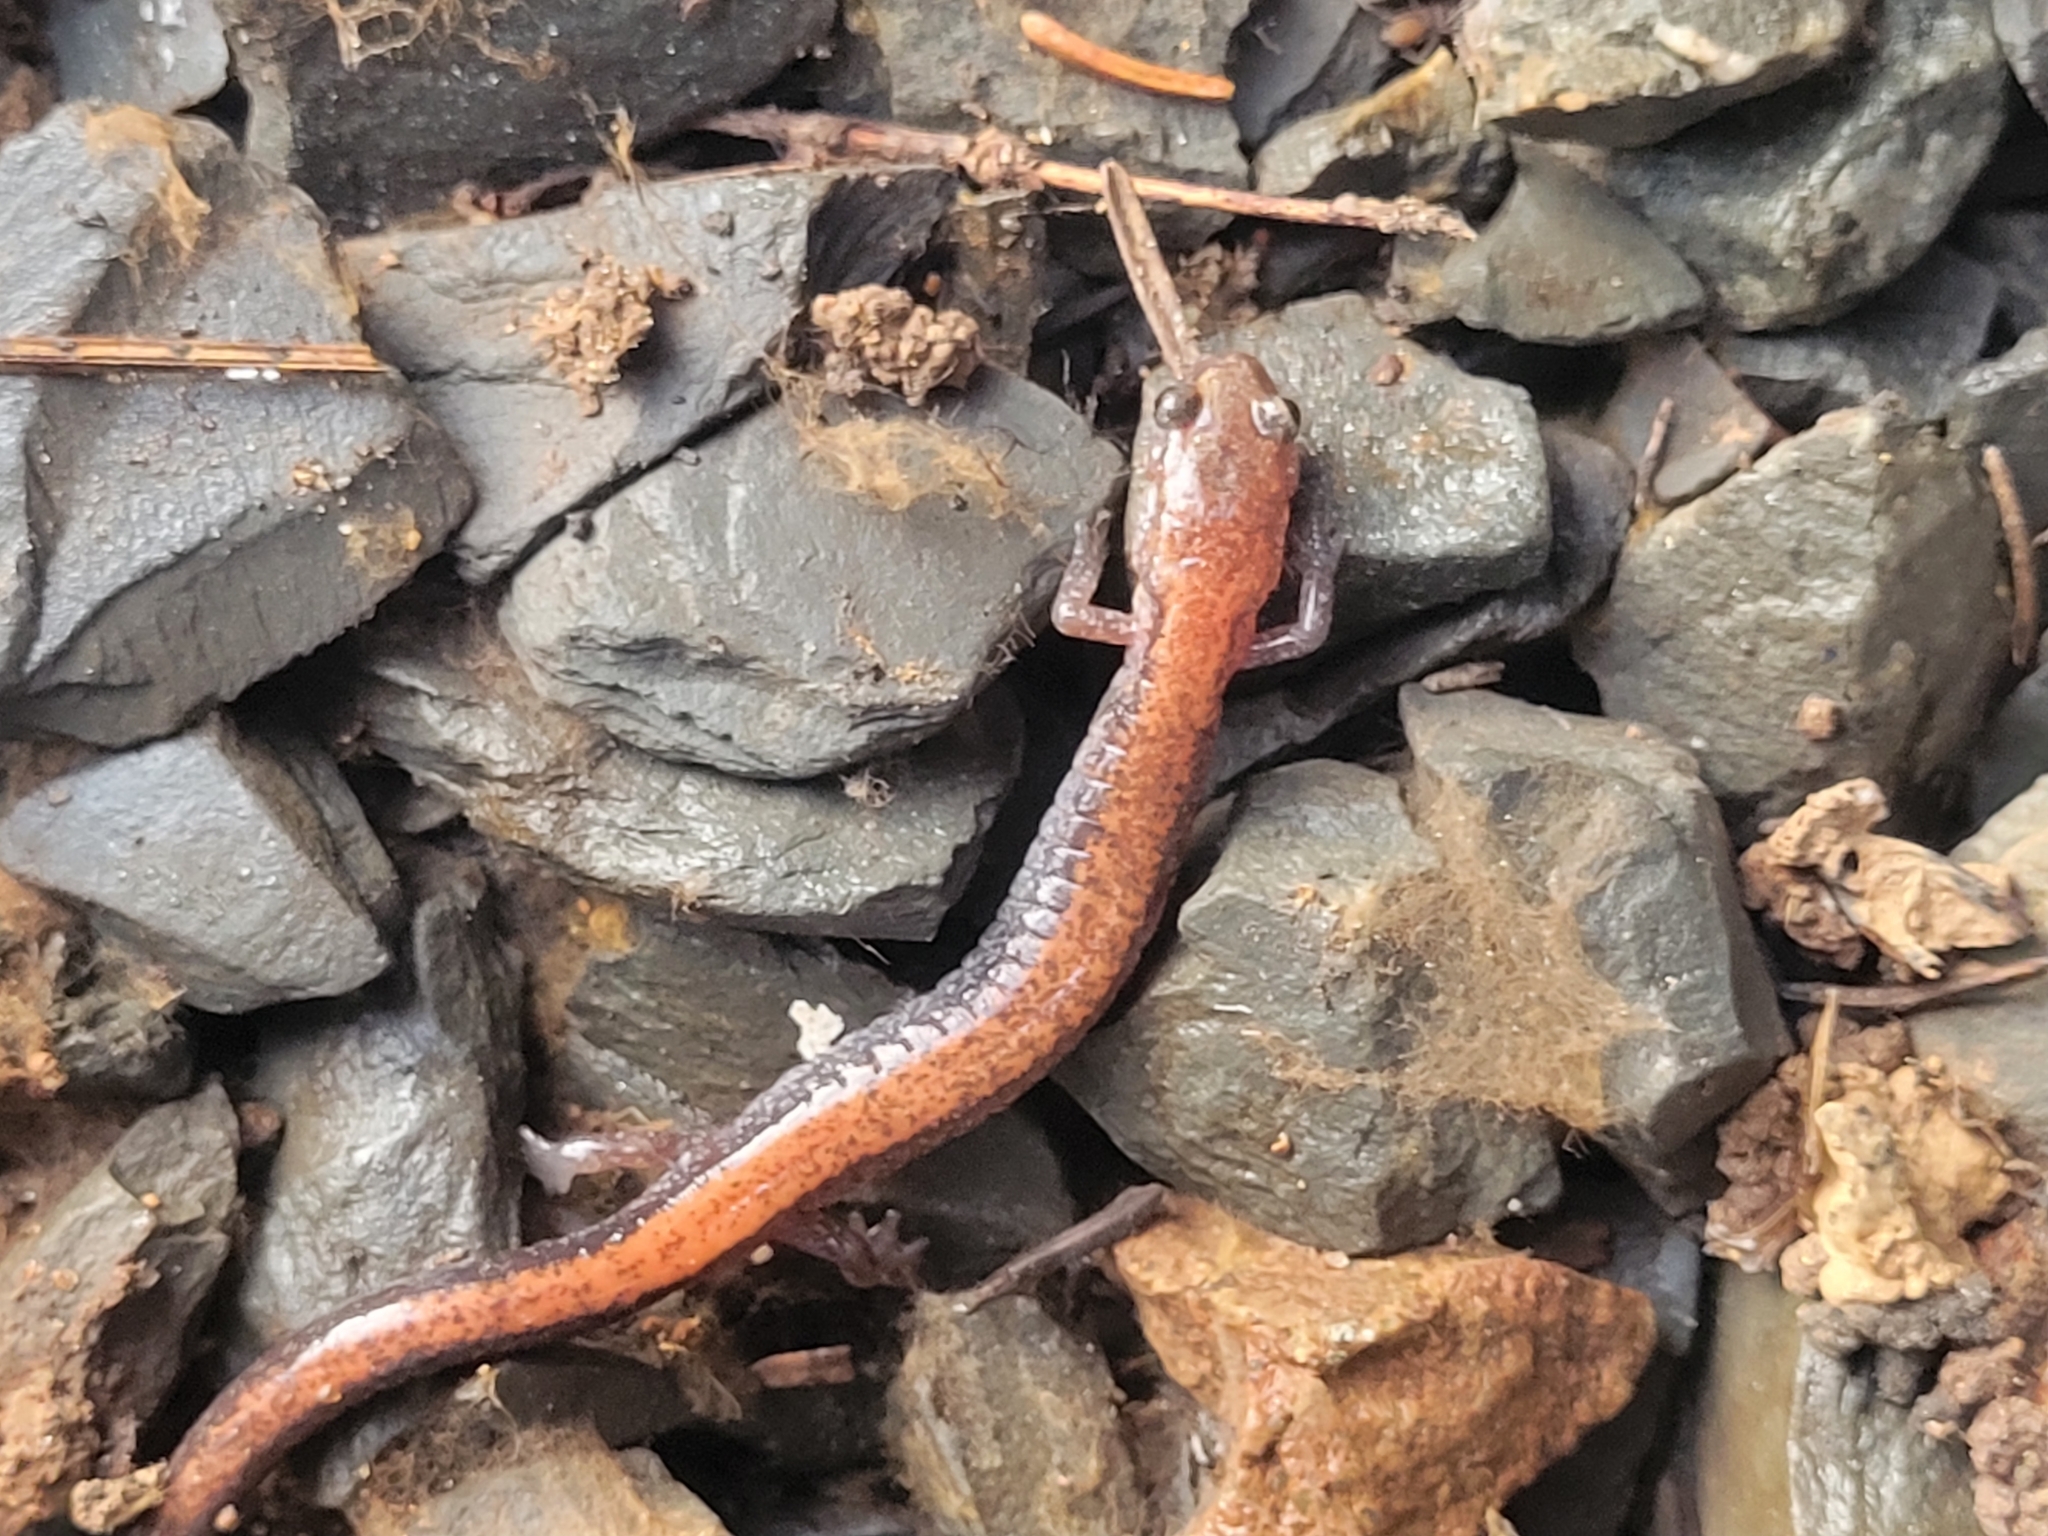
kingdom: Animalia
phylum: Chordata
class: Amphibia
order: Caudata
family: Plethodontidae
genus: Plethodon
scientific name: Plethodon cinereus
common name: Redback salamander
